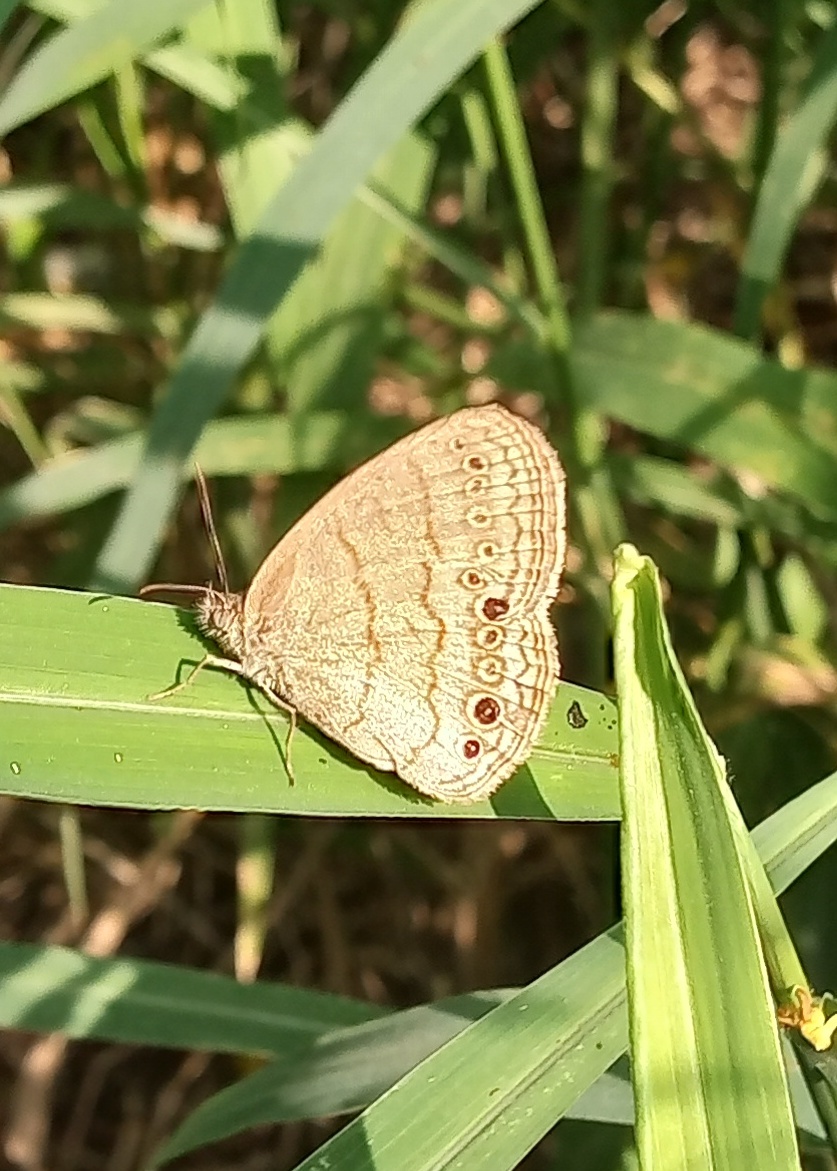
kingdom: Animalia
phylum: Arthropoda
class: Insecta
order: Lepidoptera
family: Nymphalidae
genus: Hermeuptychia
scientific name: Hermeuptychia hermybius
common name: South texas satyr
